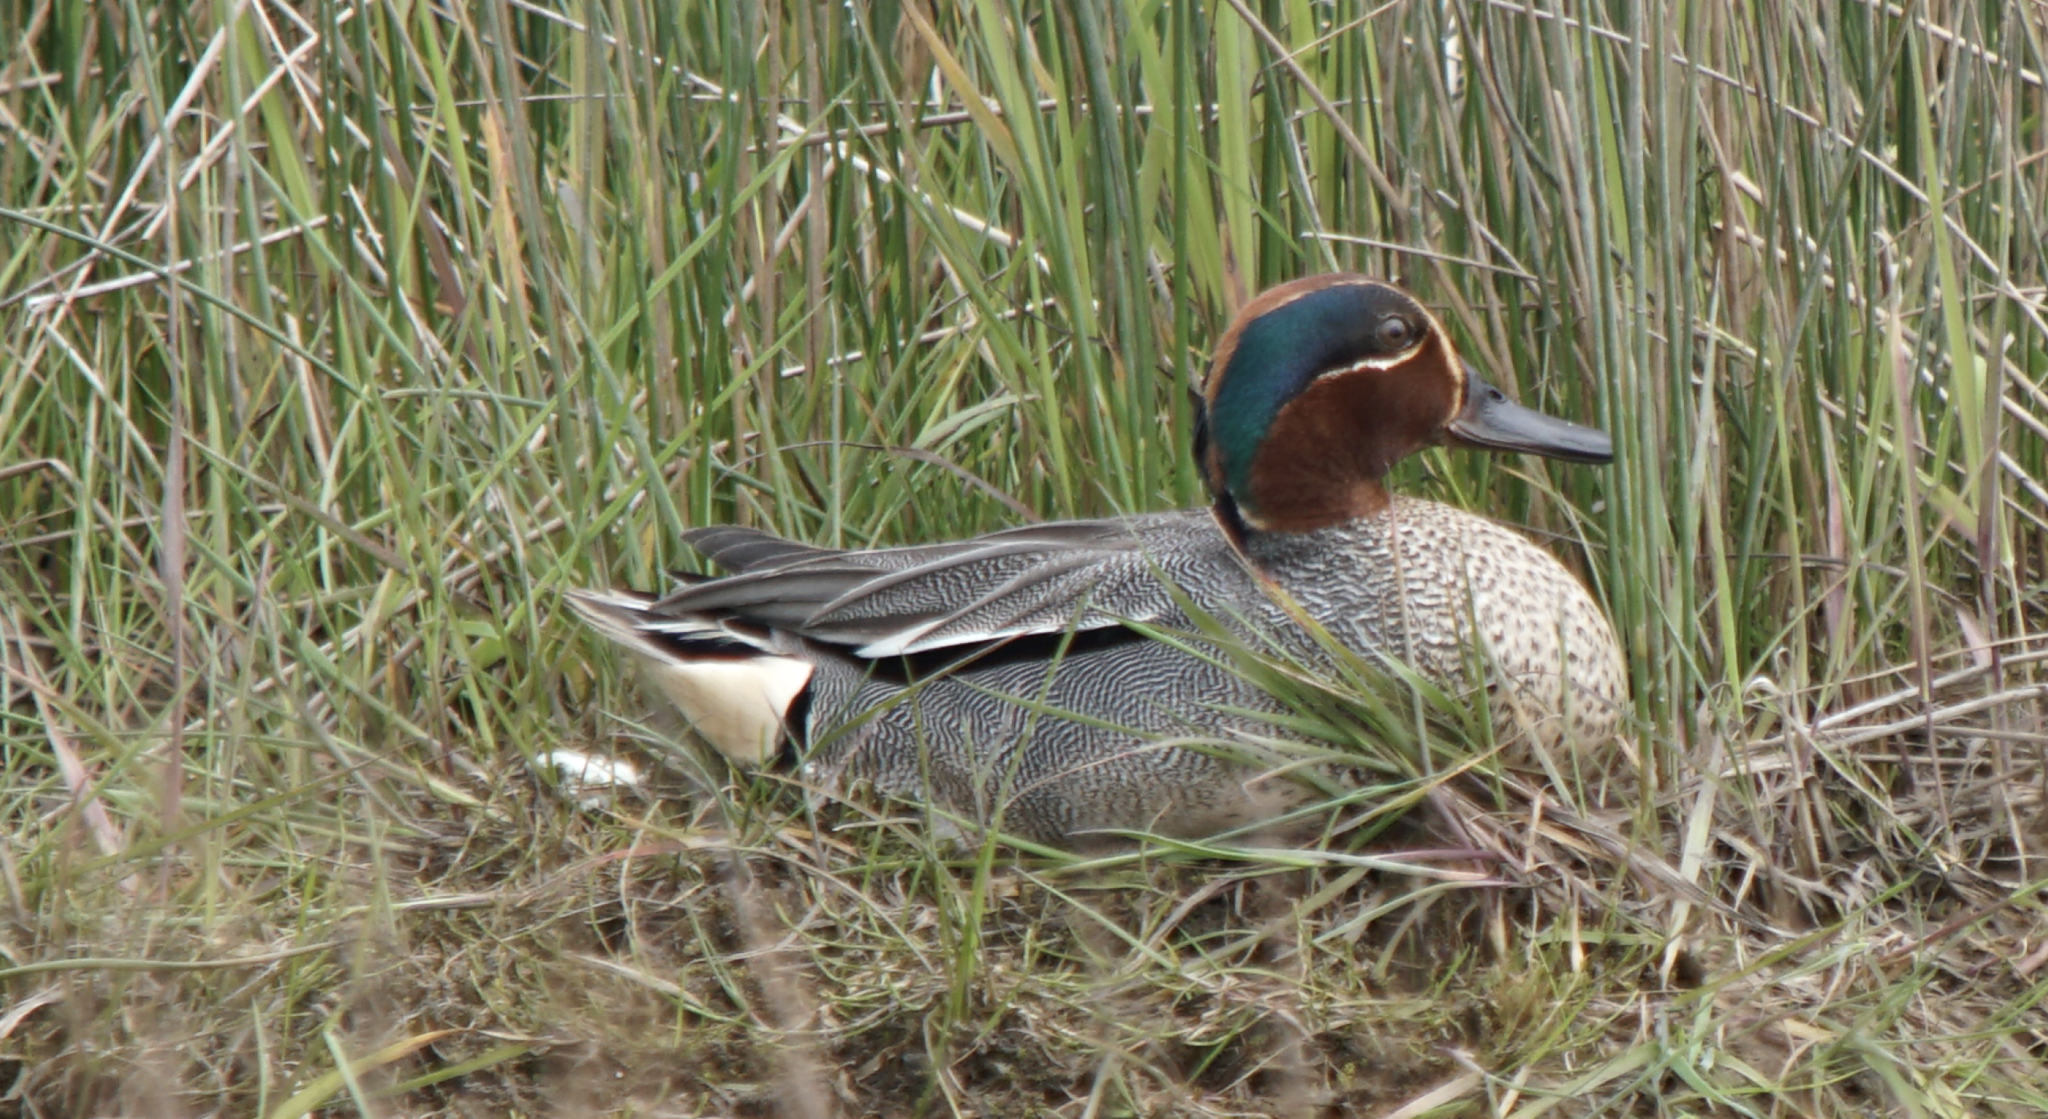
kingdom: Animalia
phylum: Chordata
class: Aves
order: Anseriformes
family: Anatidae
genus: Anas
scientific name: Anas crecca
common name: Eurasian teal
